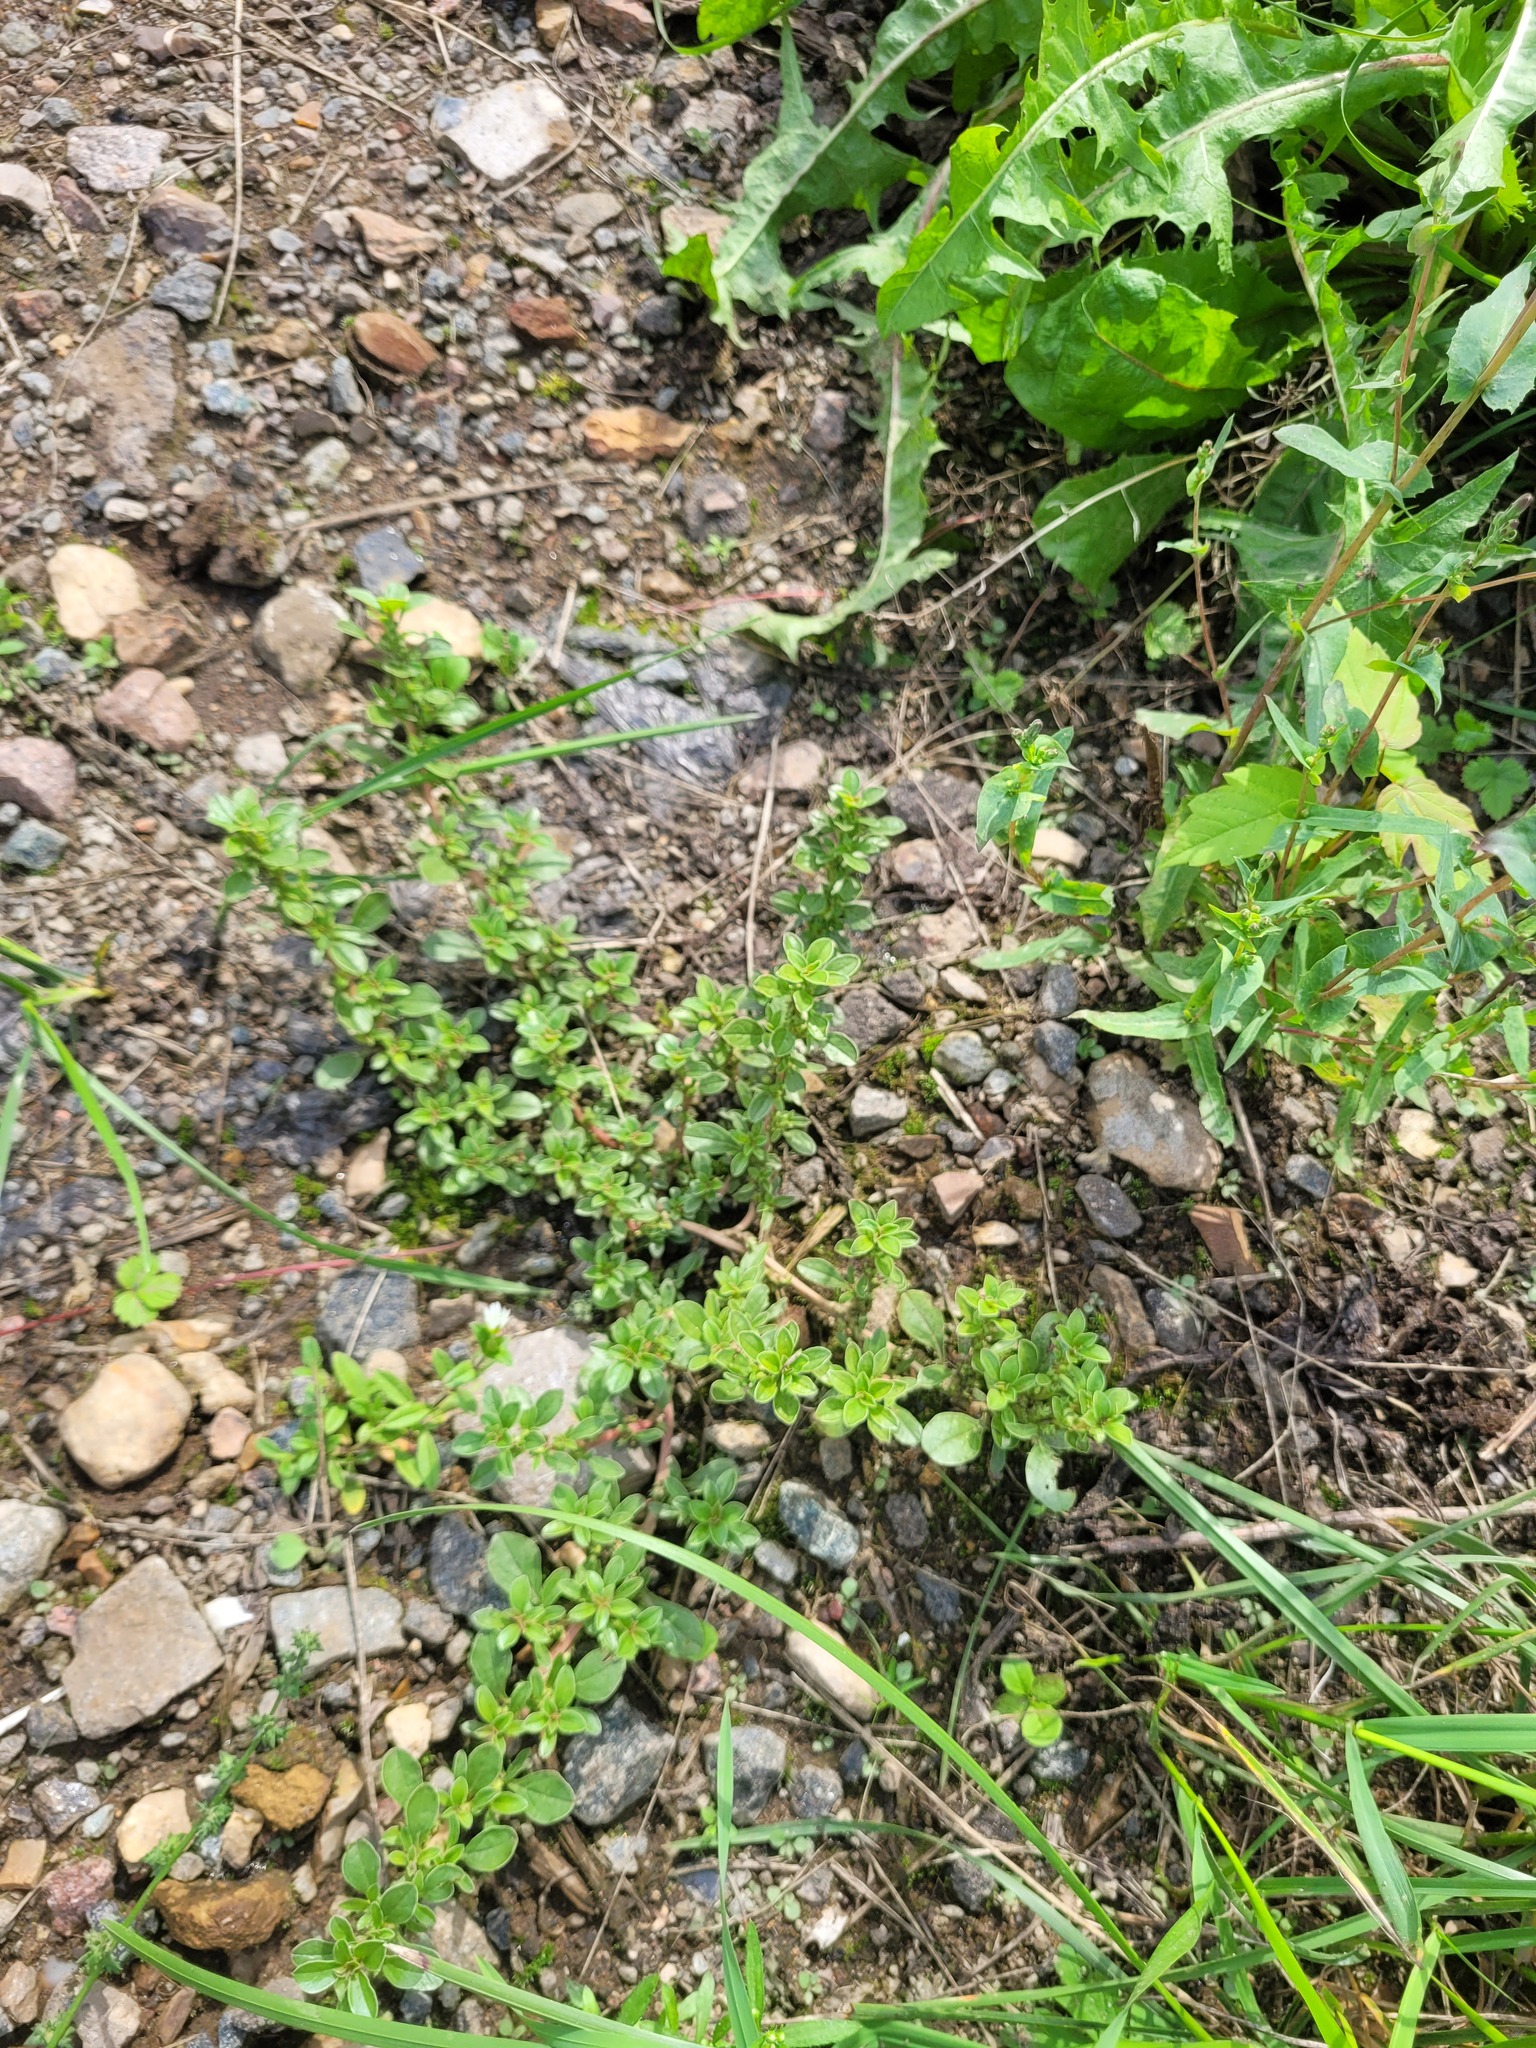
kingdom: Plantae
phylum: Tracheophyta
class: Magnoliopsida
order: Caryophyllales
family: Amaranthaceae
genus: Amaranthus
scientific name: Amaranthus blitoides
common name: Prostrate pigweed
